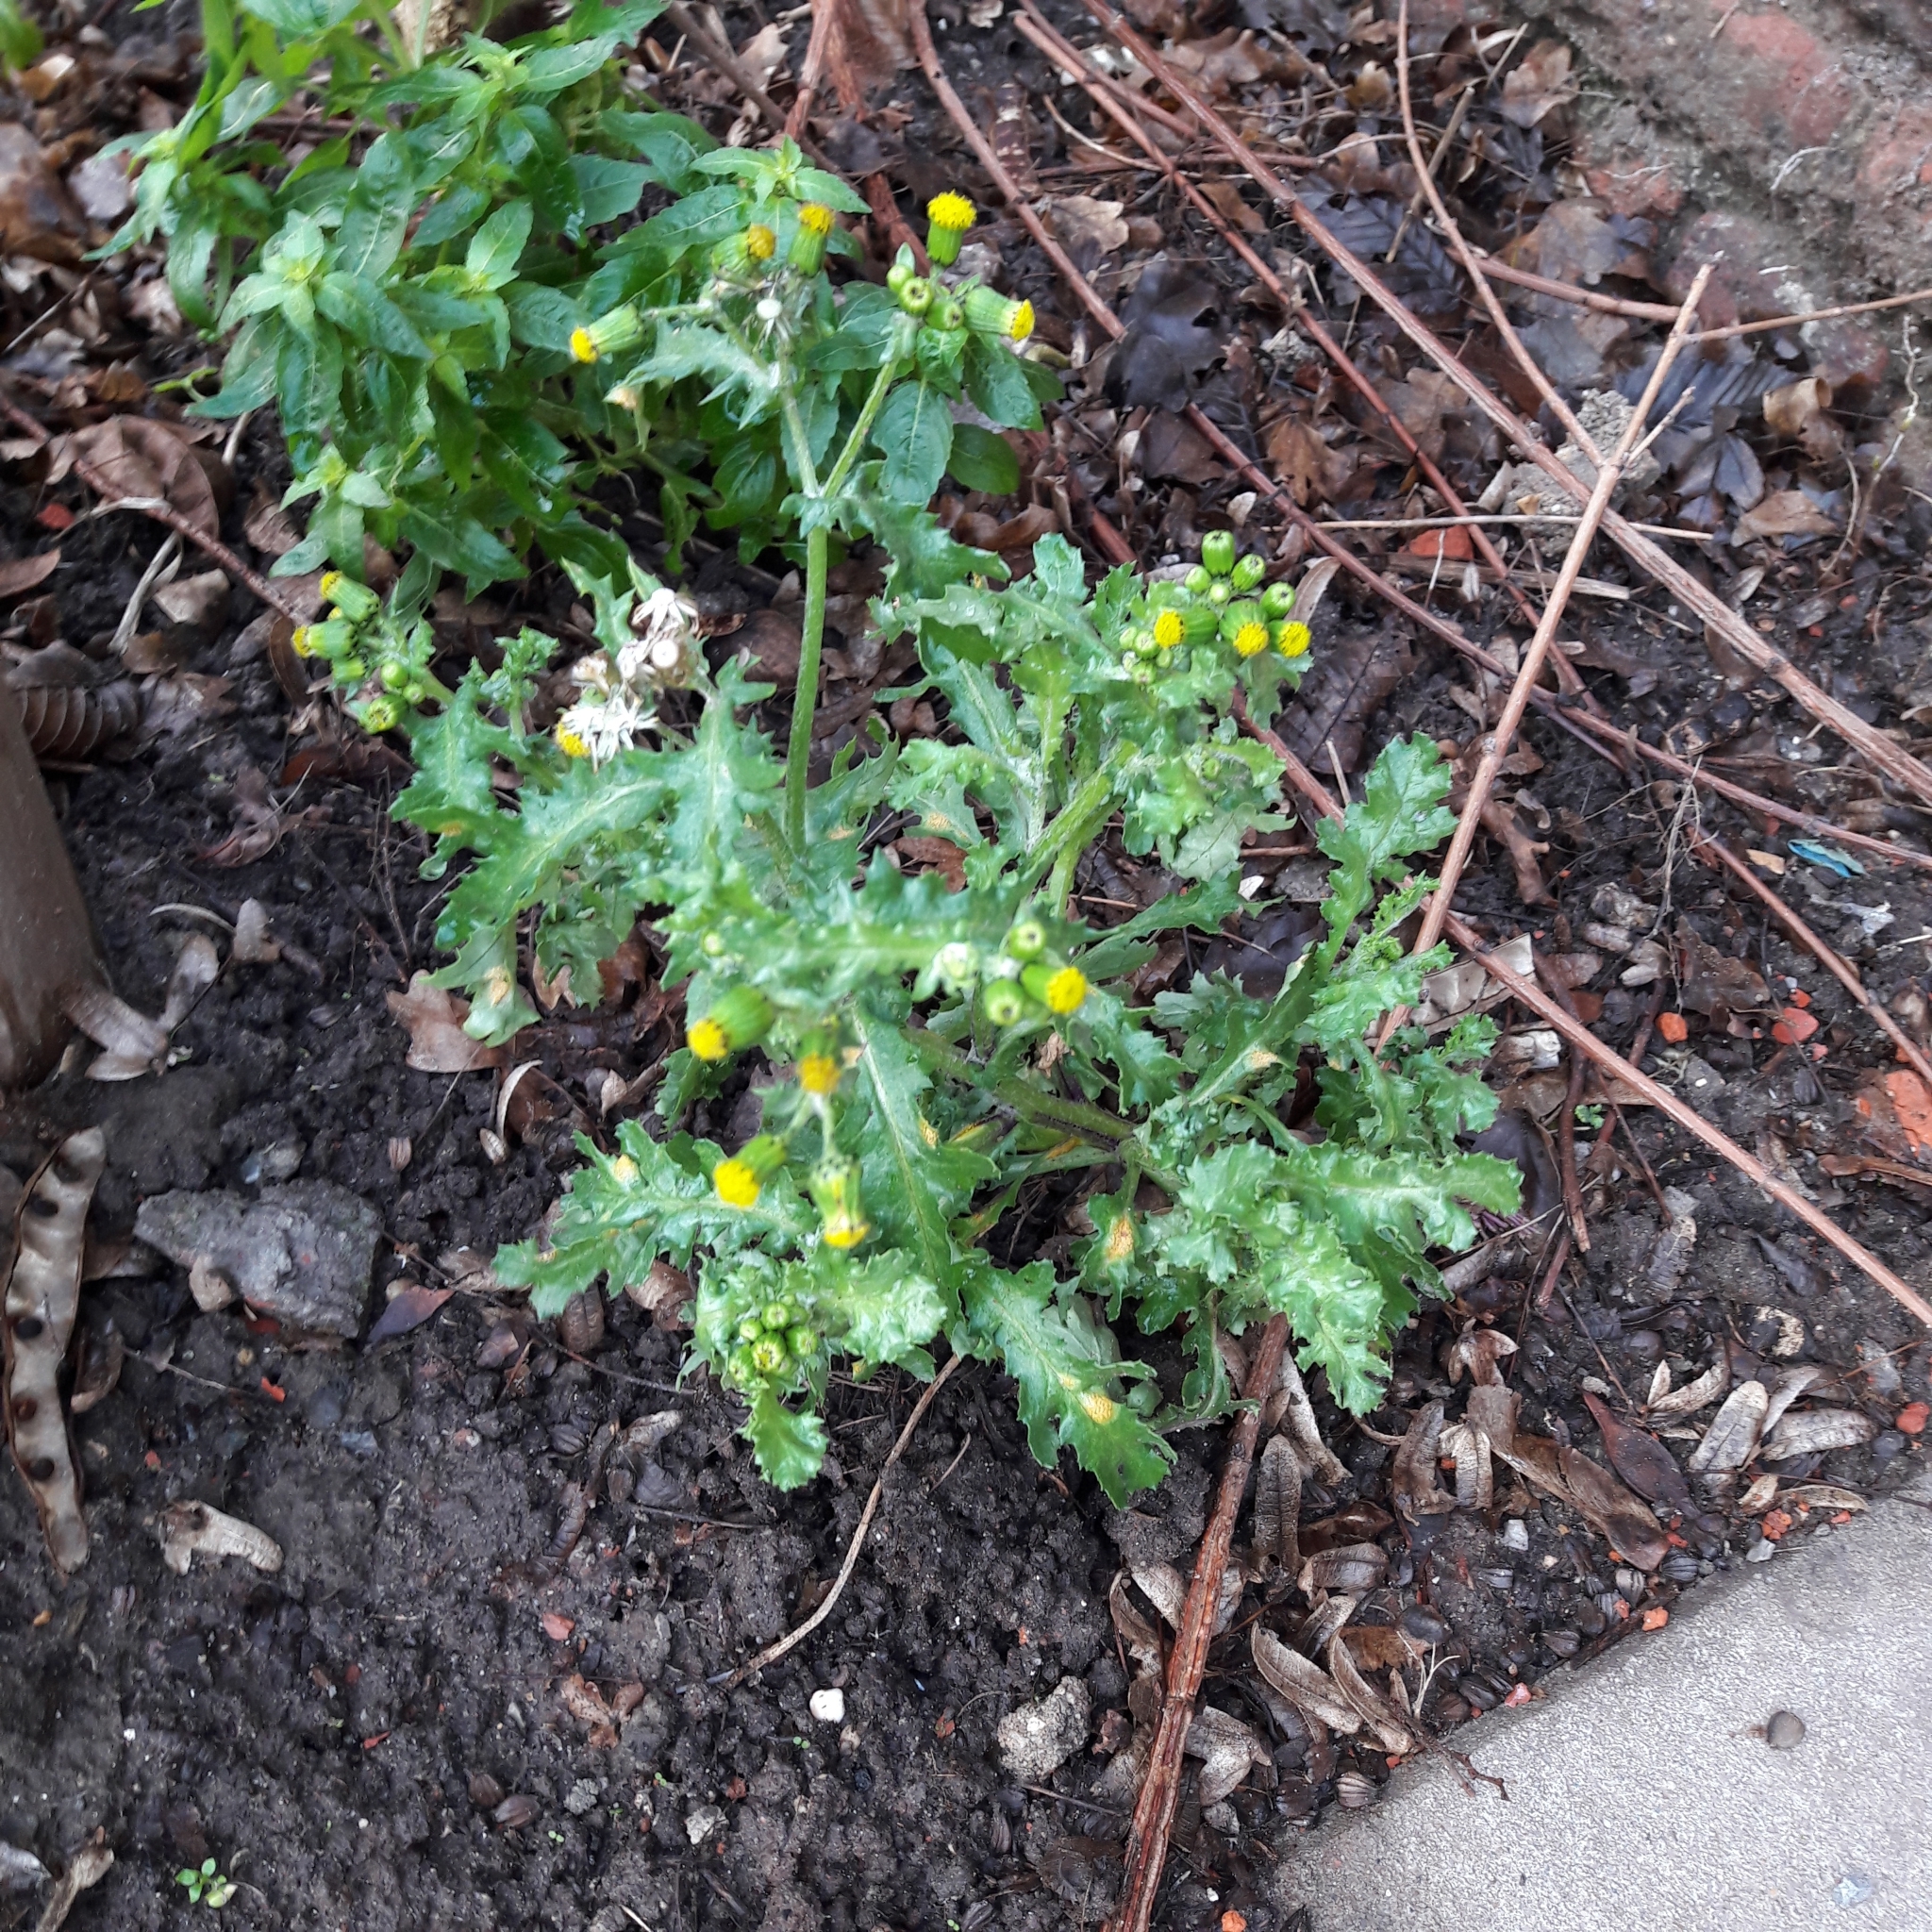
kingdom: Plantae
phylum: Tracheophyta
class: Magnoliopsida
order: Asterales
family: Asteraceae
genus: Senecio
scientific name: Senecio vulgaris
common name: Old-man-in-the-spring
